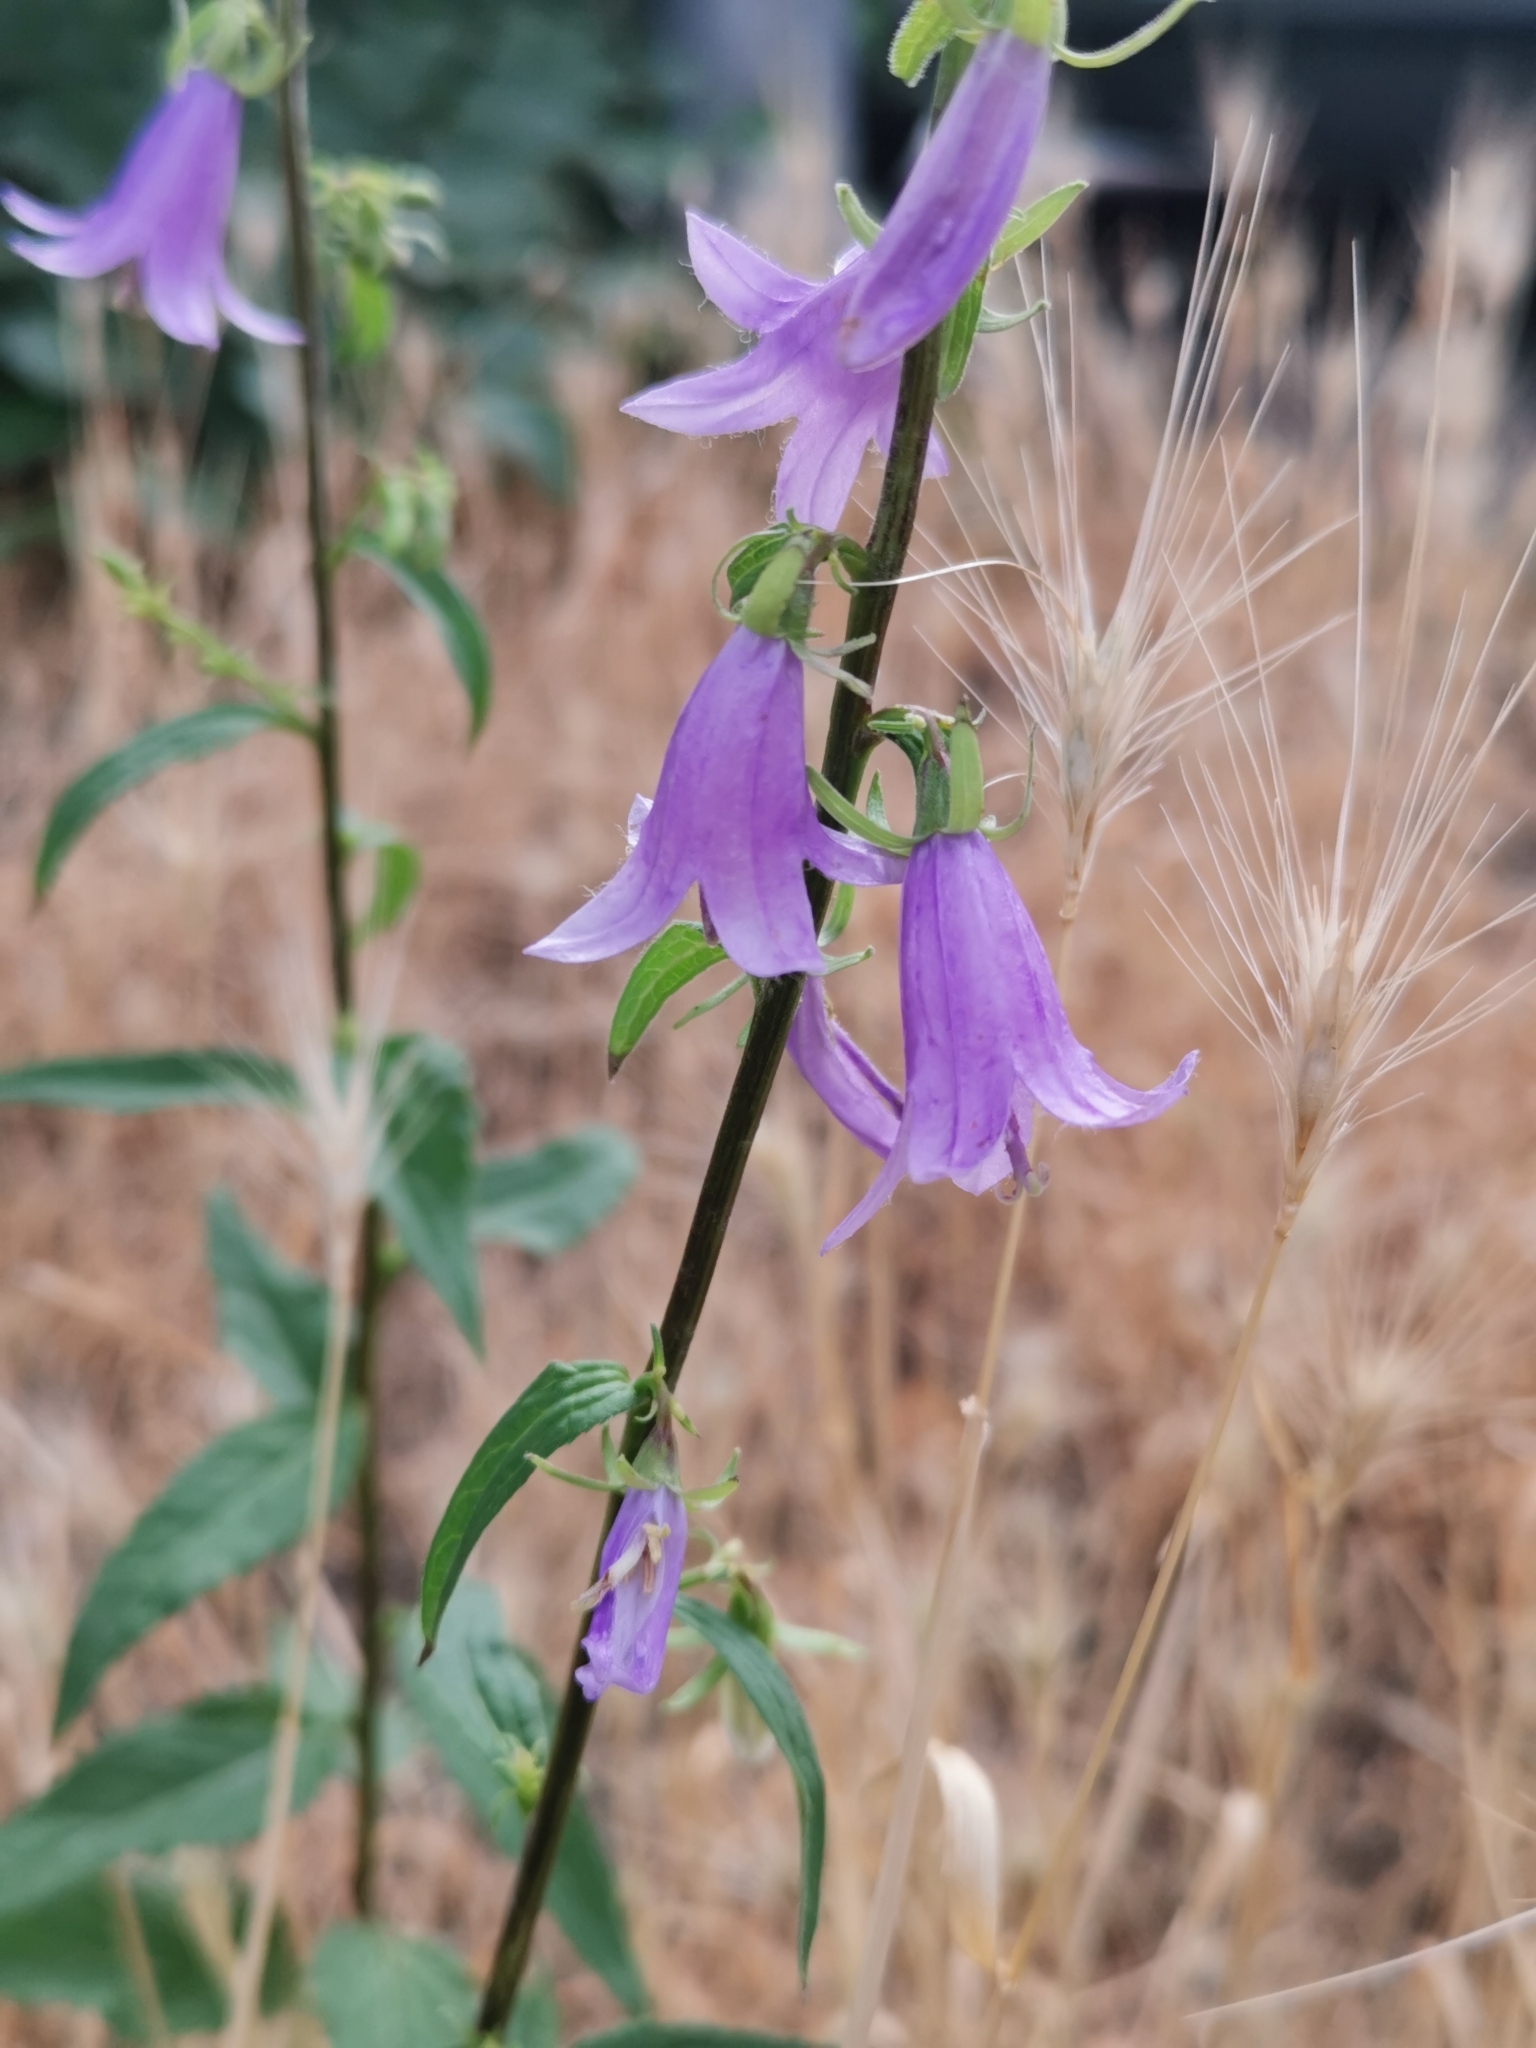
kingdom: Plantae
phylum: Tracheophyta
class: Magnoliopsida
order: Asterales
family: Campanulaceae
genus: Campanula
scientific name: Campanula rapunculoides
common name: Creeping bellflower
